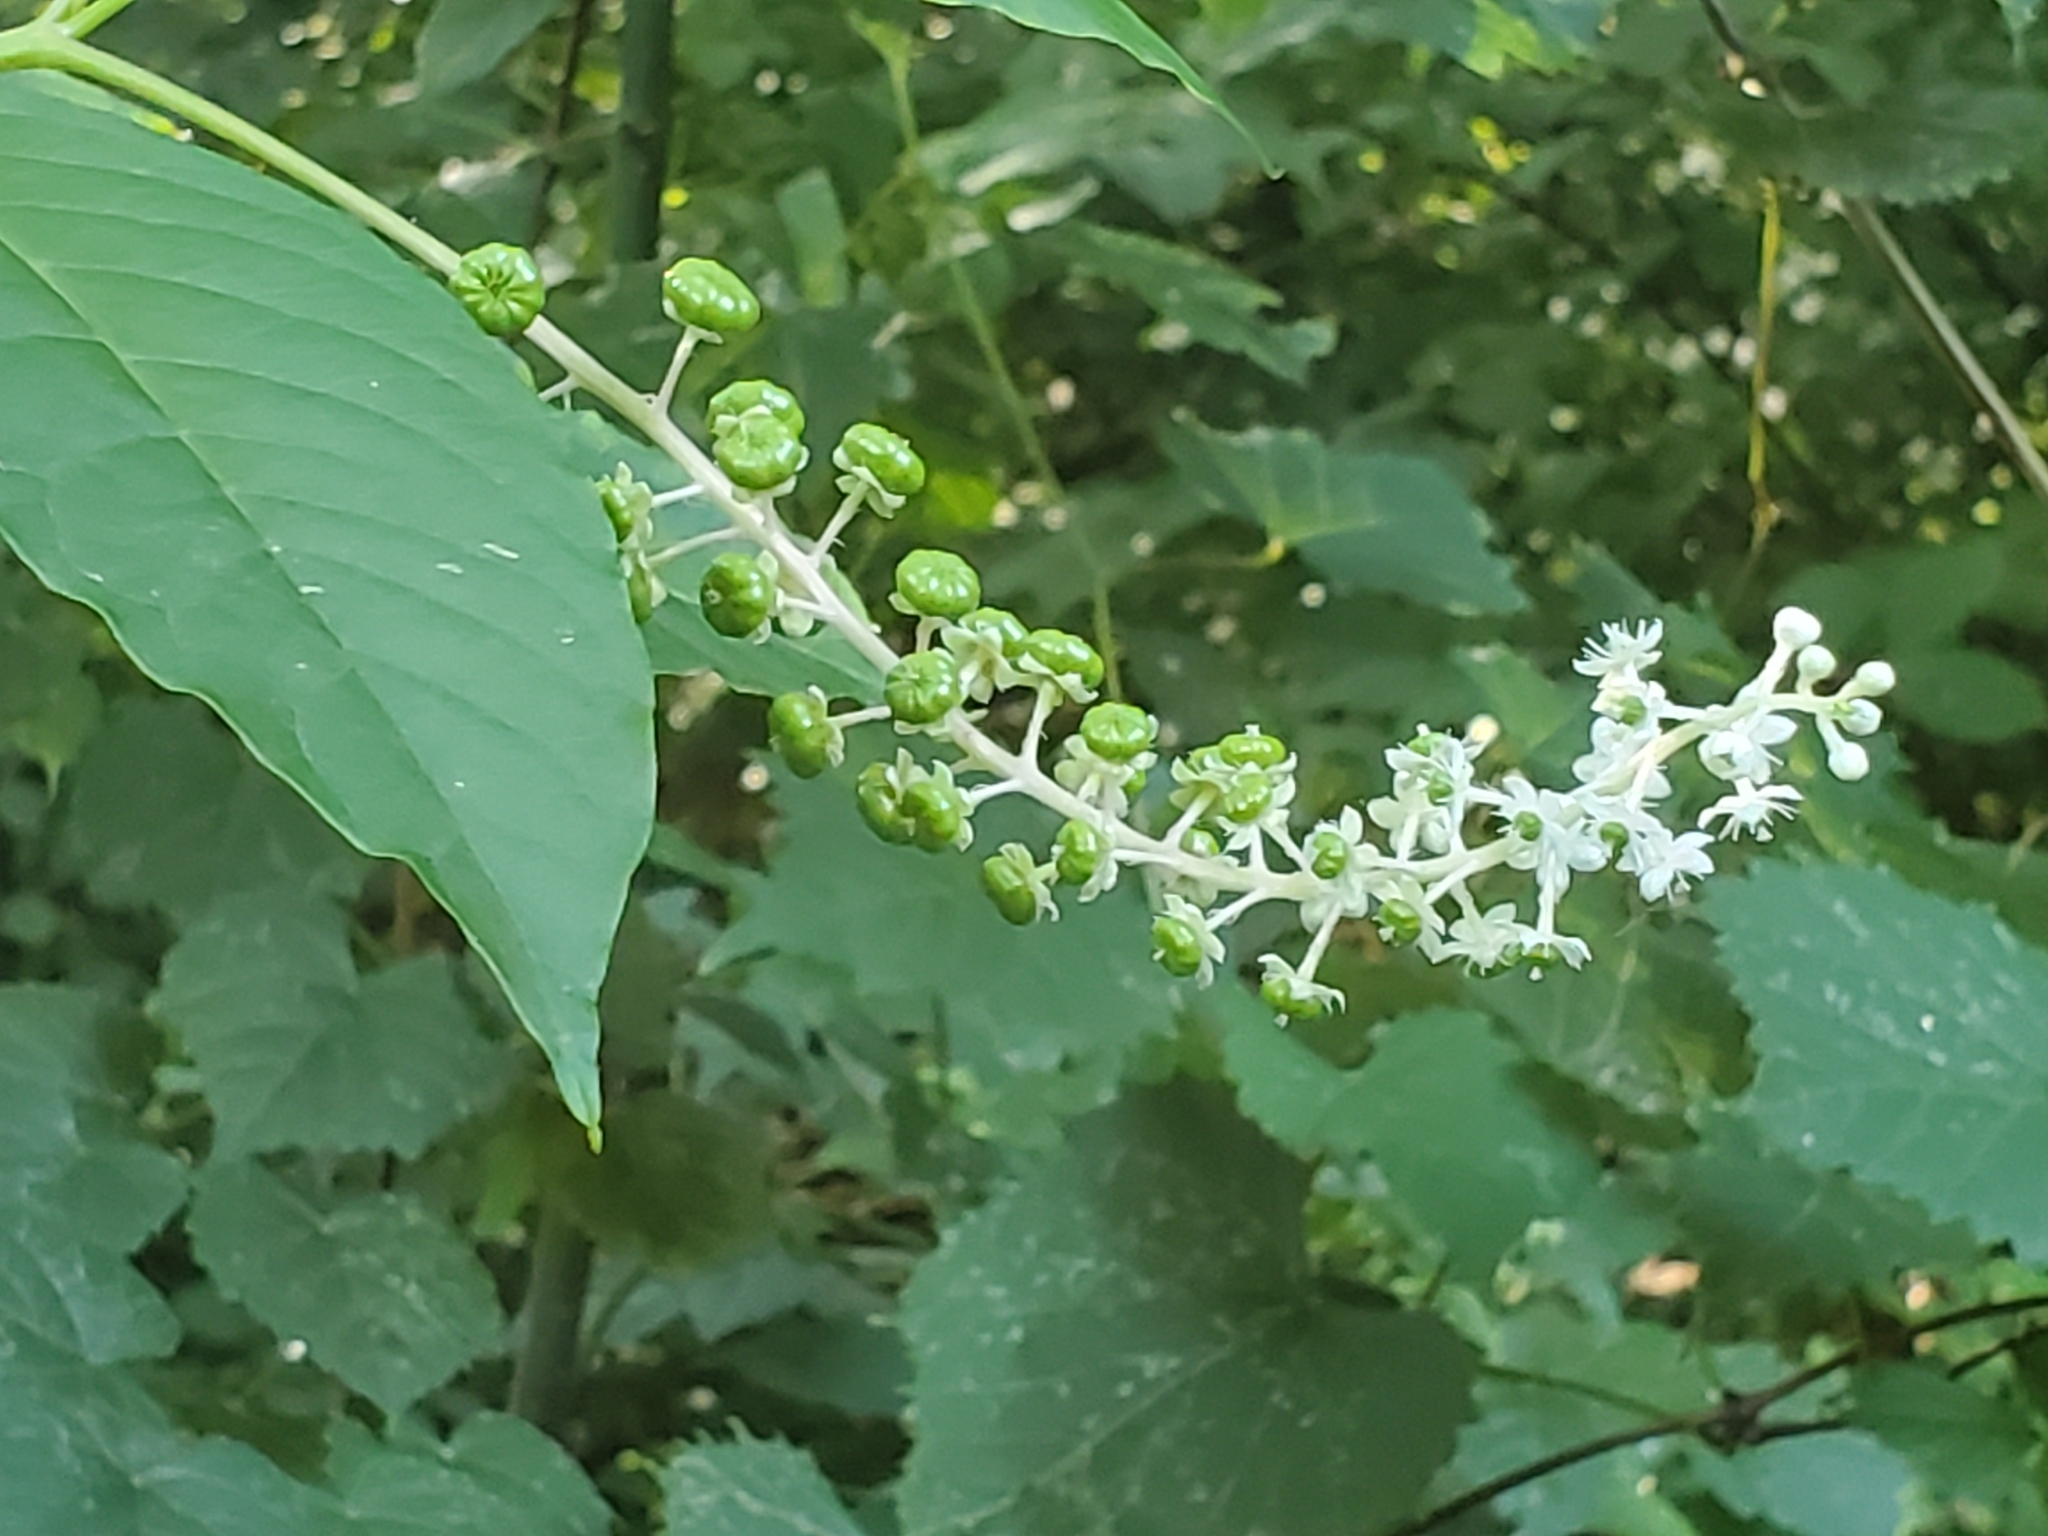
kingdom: Plantae
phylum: Tracheophyta
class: Magnoliopsida
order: Caryophyllales
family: Phytolaccaceae
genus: Phytolacca
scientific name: Phytolacca americana
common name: American pokeweed
